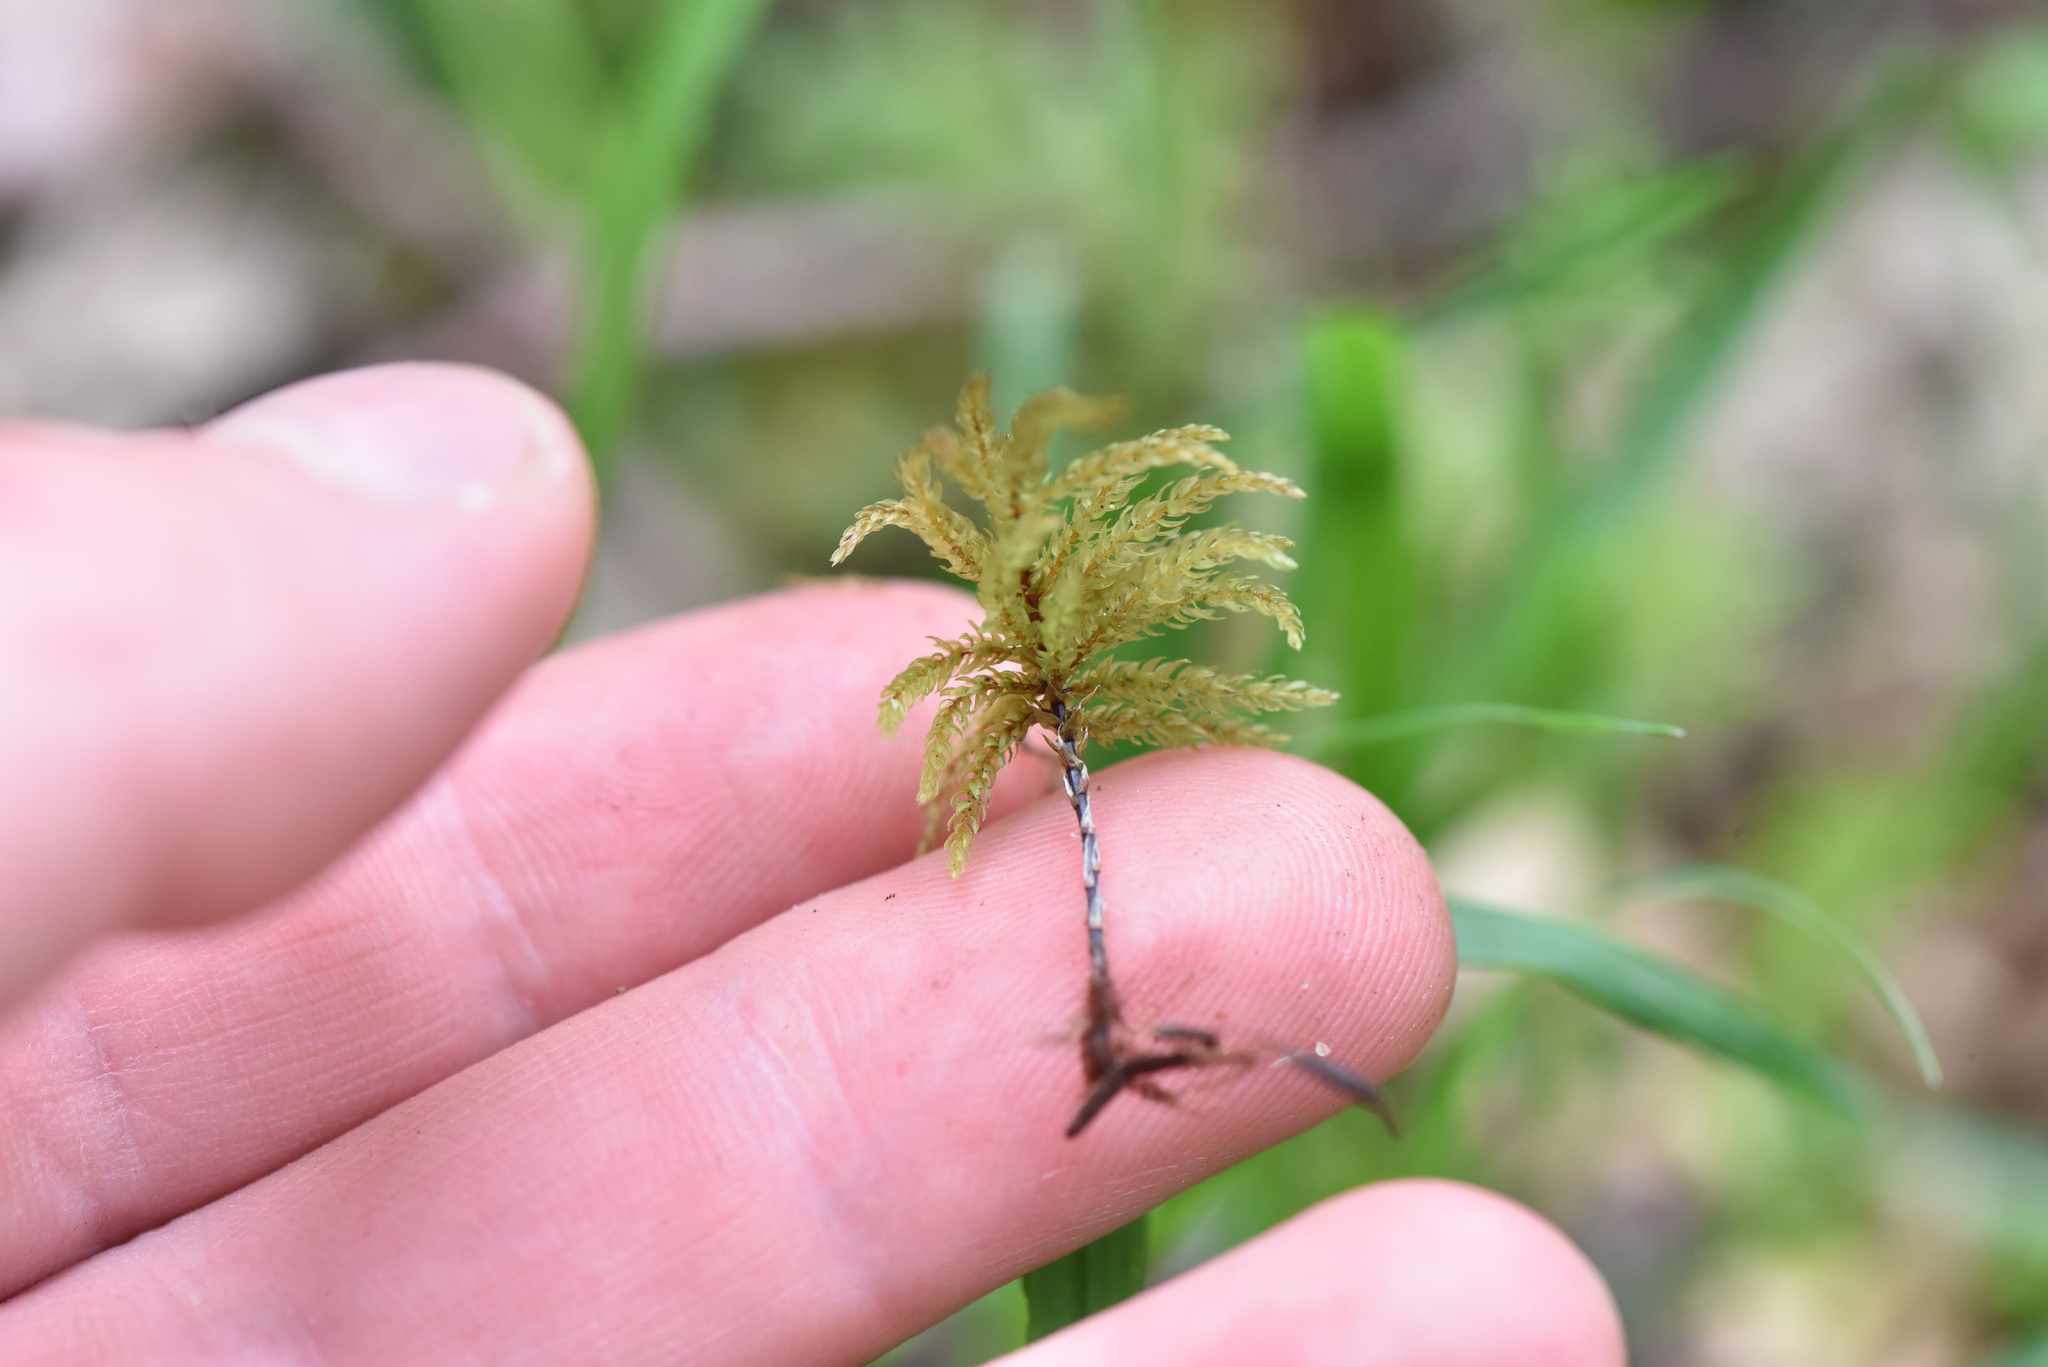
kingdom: Plantae
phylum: Bryophyta
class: Bryopsida
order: Bryales
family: Mniaceae
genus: Leucolepis
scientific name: Leucolepis acanthoneura
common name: Leucolepis umbrella moss
